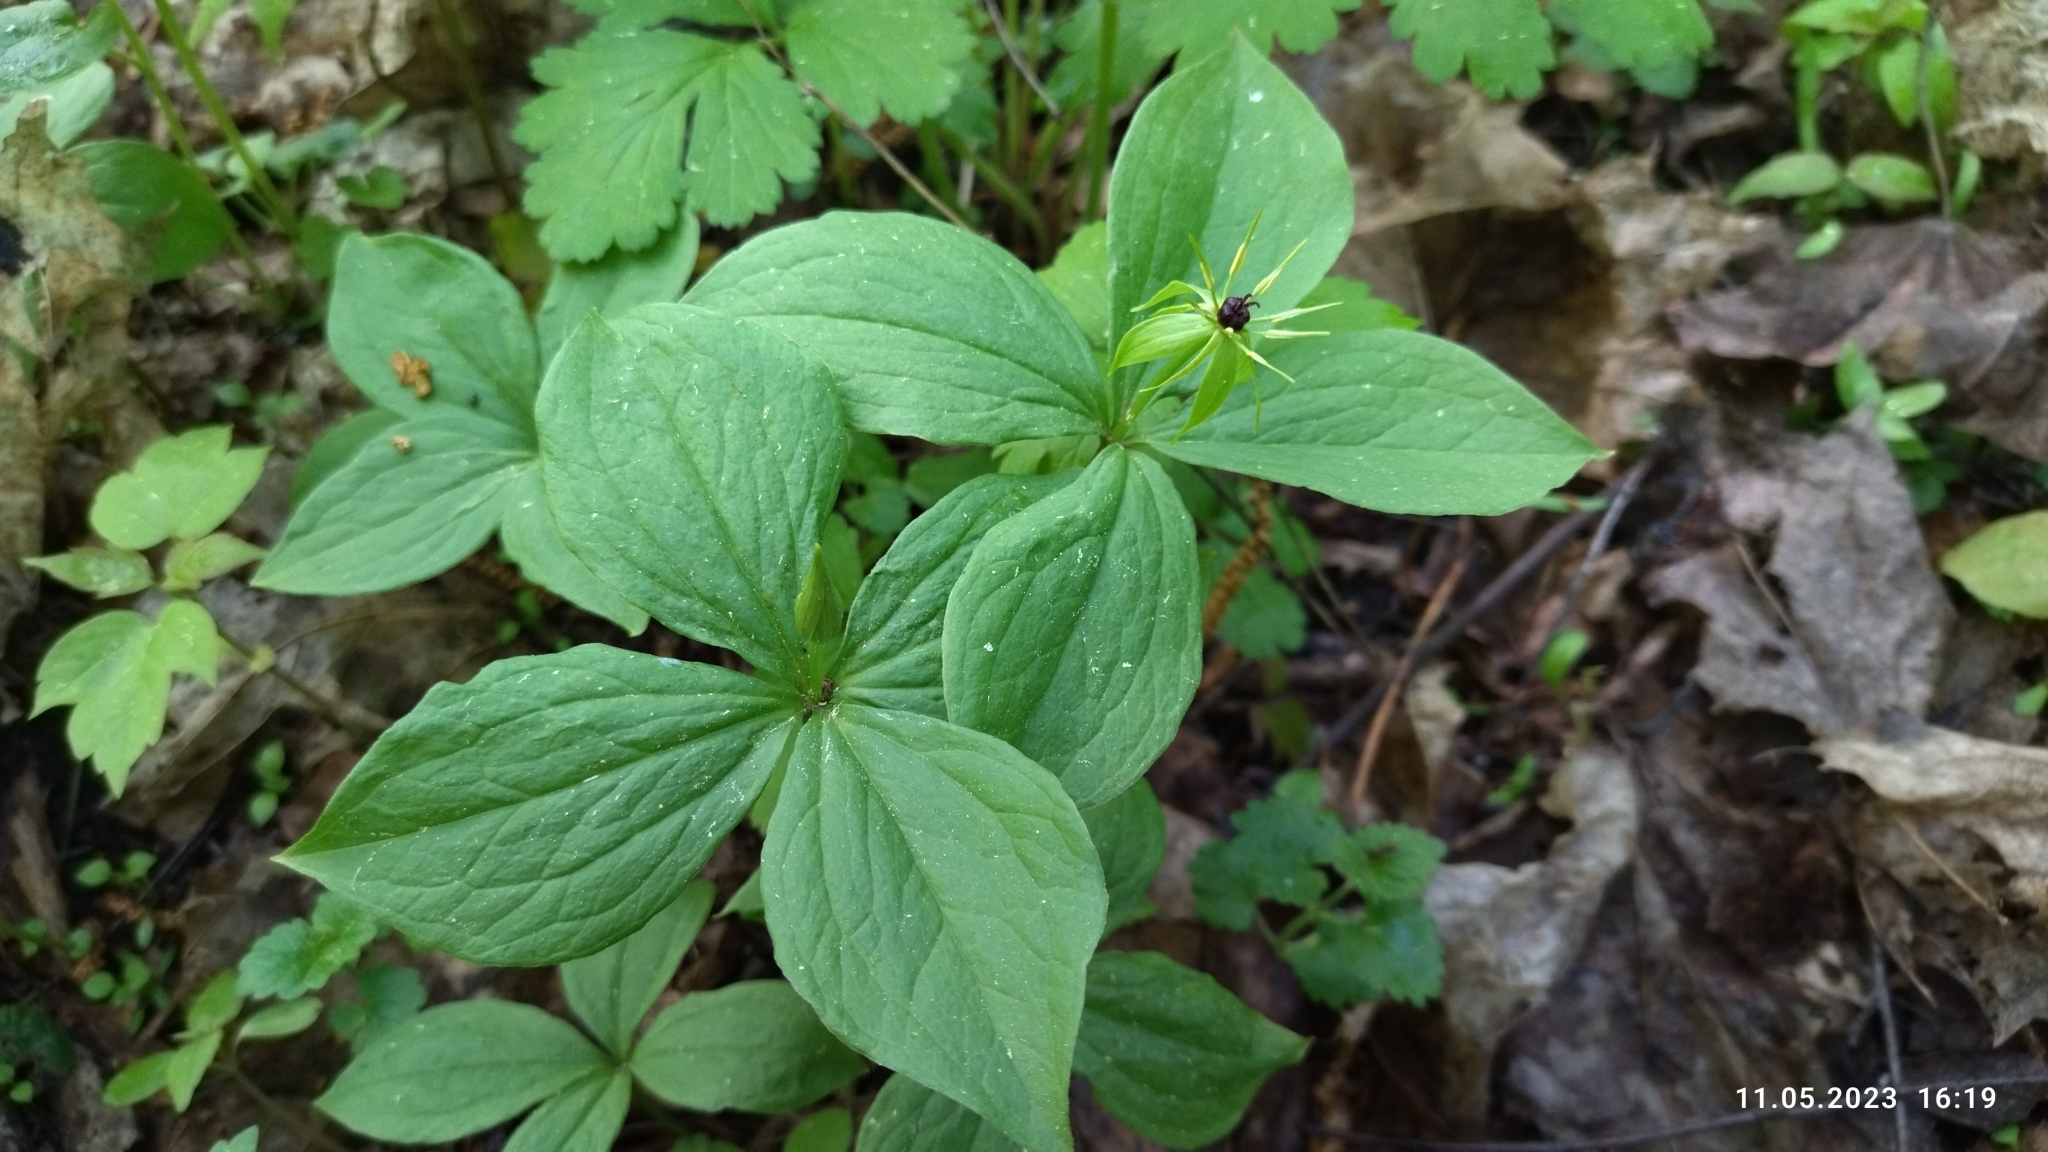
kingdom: Plantae
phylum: Tracheophyta
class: Liliopsida
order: Liliales
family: Melanthiaceae
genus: Paris
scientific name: Paris quadrifolia
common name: Herb-paris
